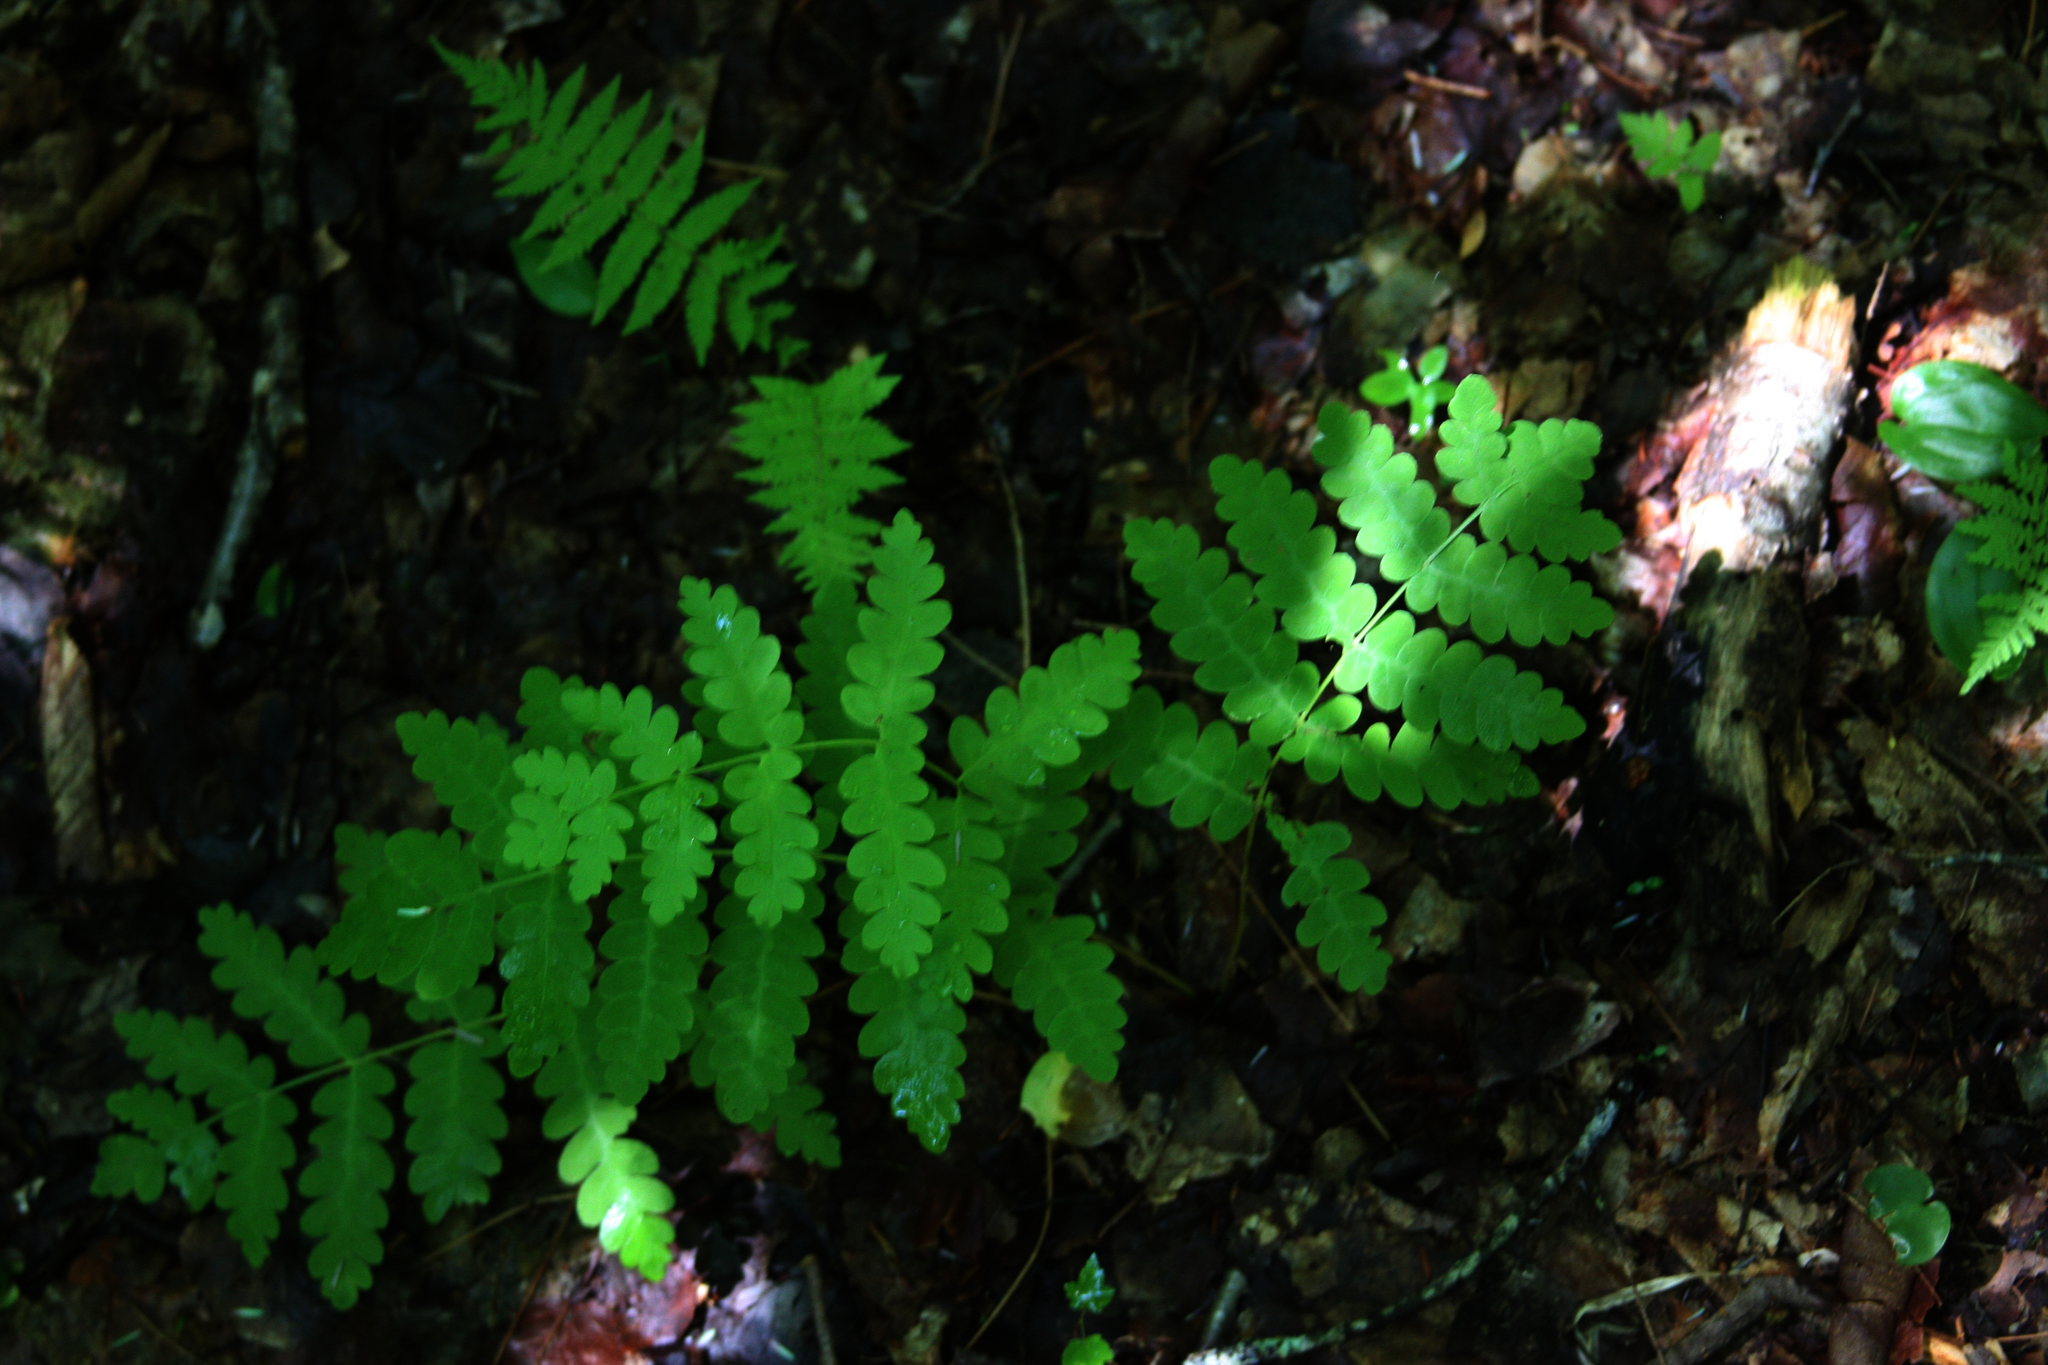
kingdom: Plantae
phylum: Tracheophyta
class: Polypodiopsida
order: Osmundales
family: Osmundaceae
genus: Claytosmunda
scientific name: Claytosmunda claytoniana
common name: Clayton's fern
